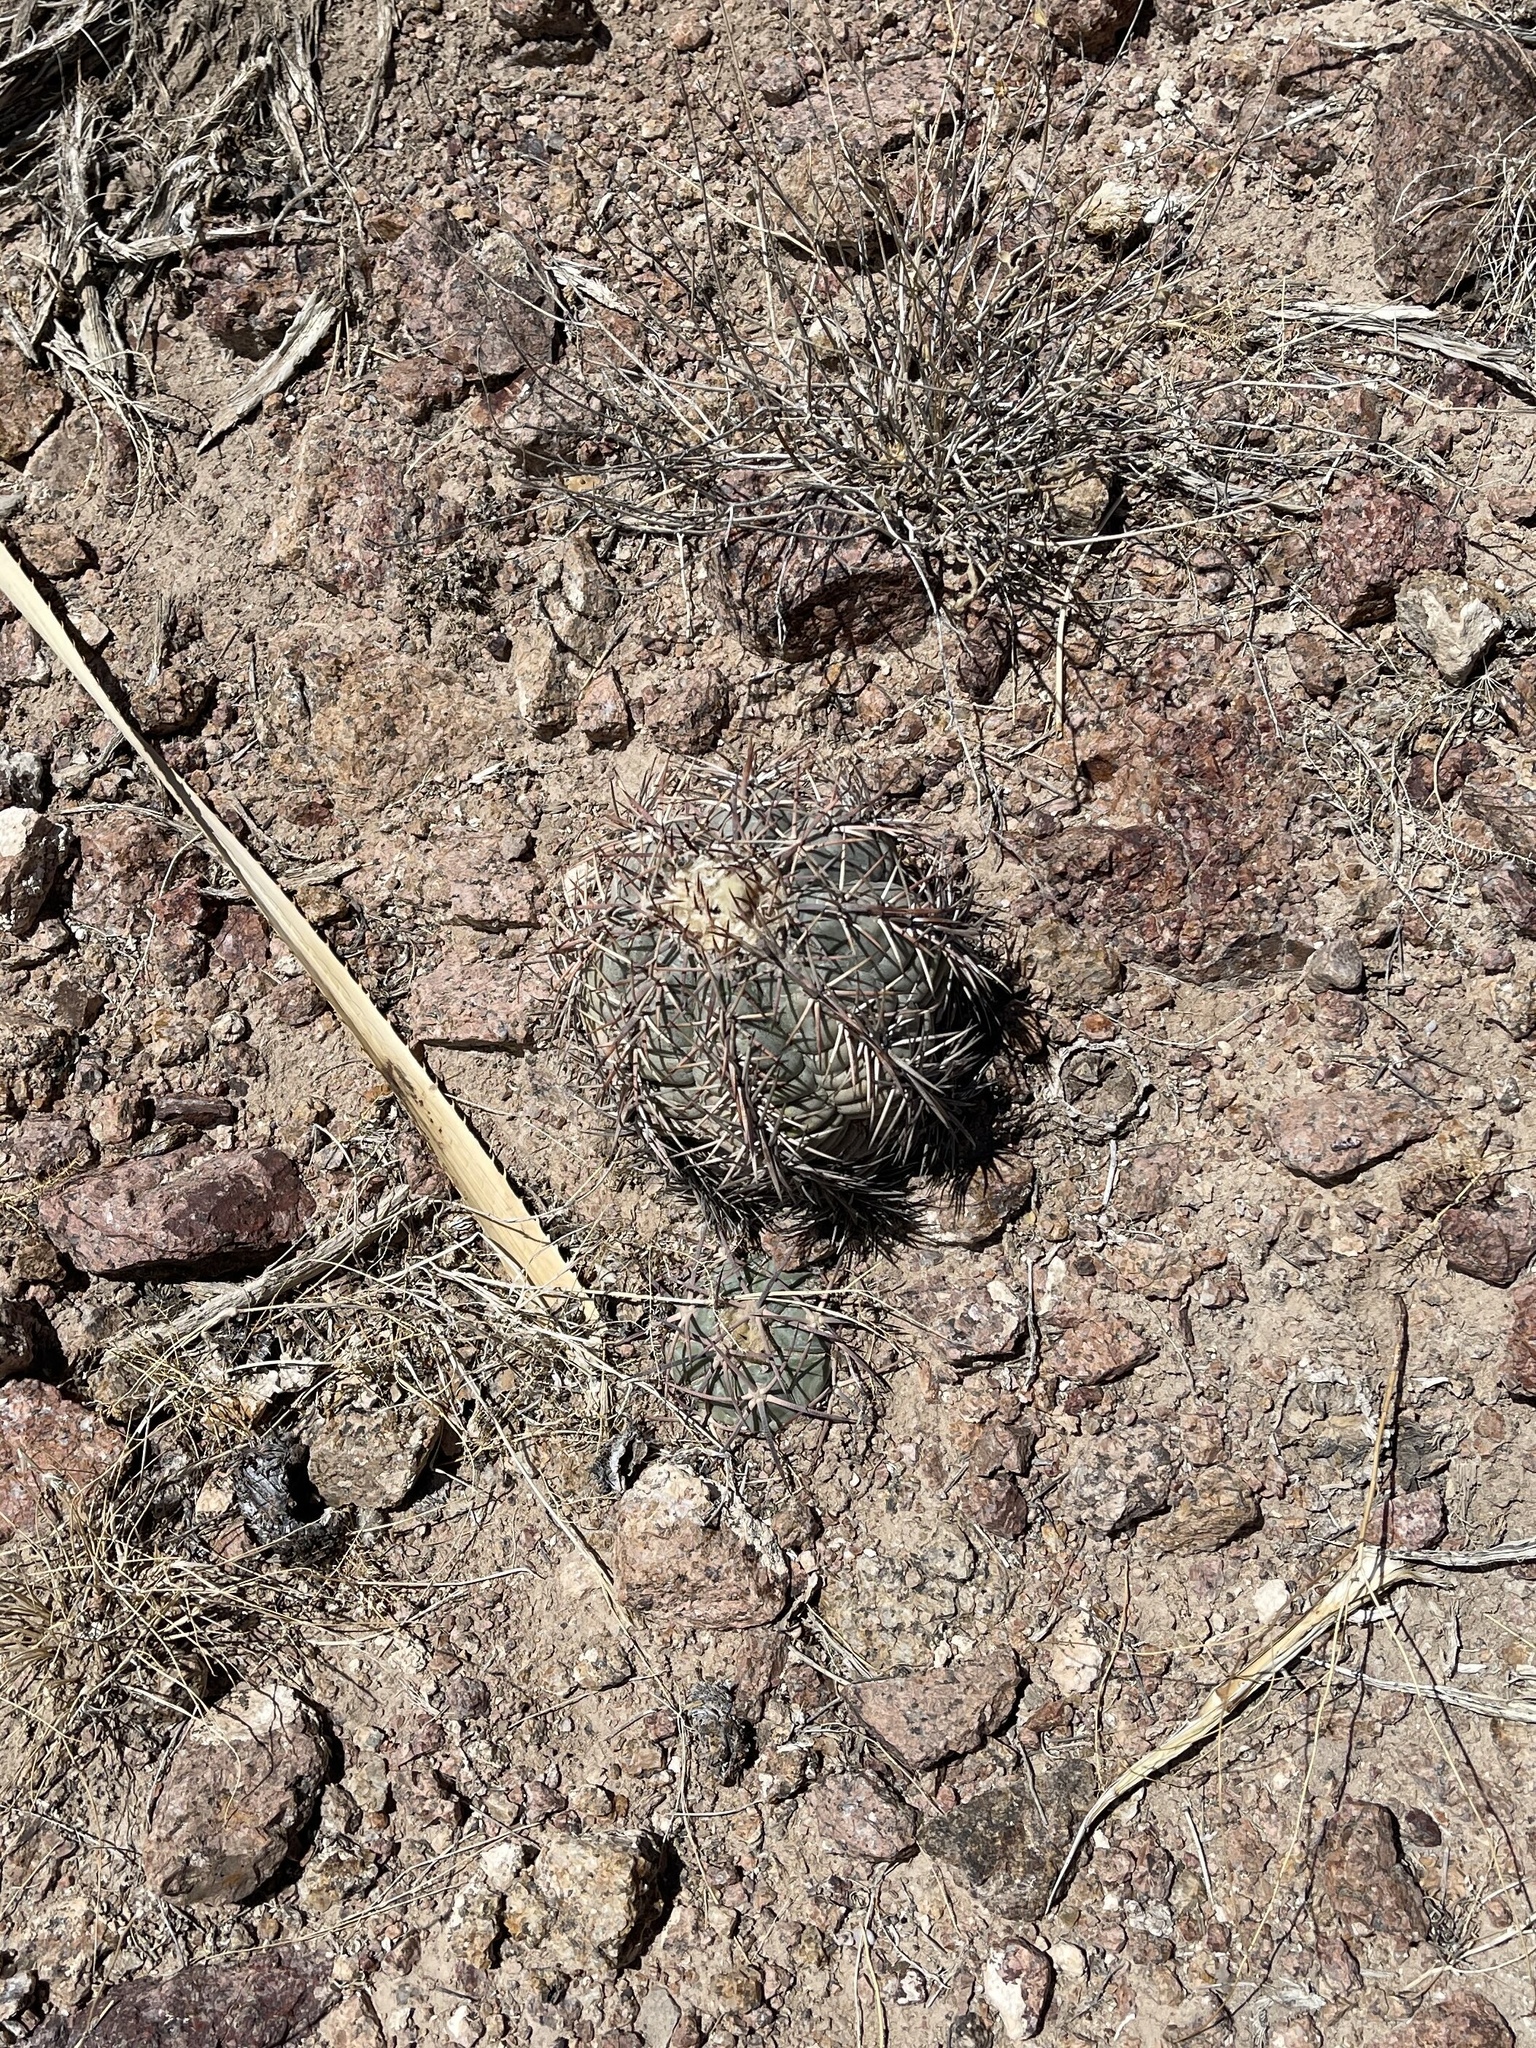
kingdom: Plantae
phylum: Tracheophyta
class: Magnoliopsida
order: Caryophyllales
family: Cactaceae
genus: Echinocactus
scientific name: Echinocactus horizonthalonius
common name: Devilshead
